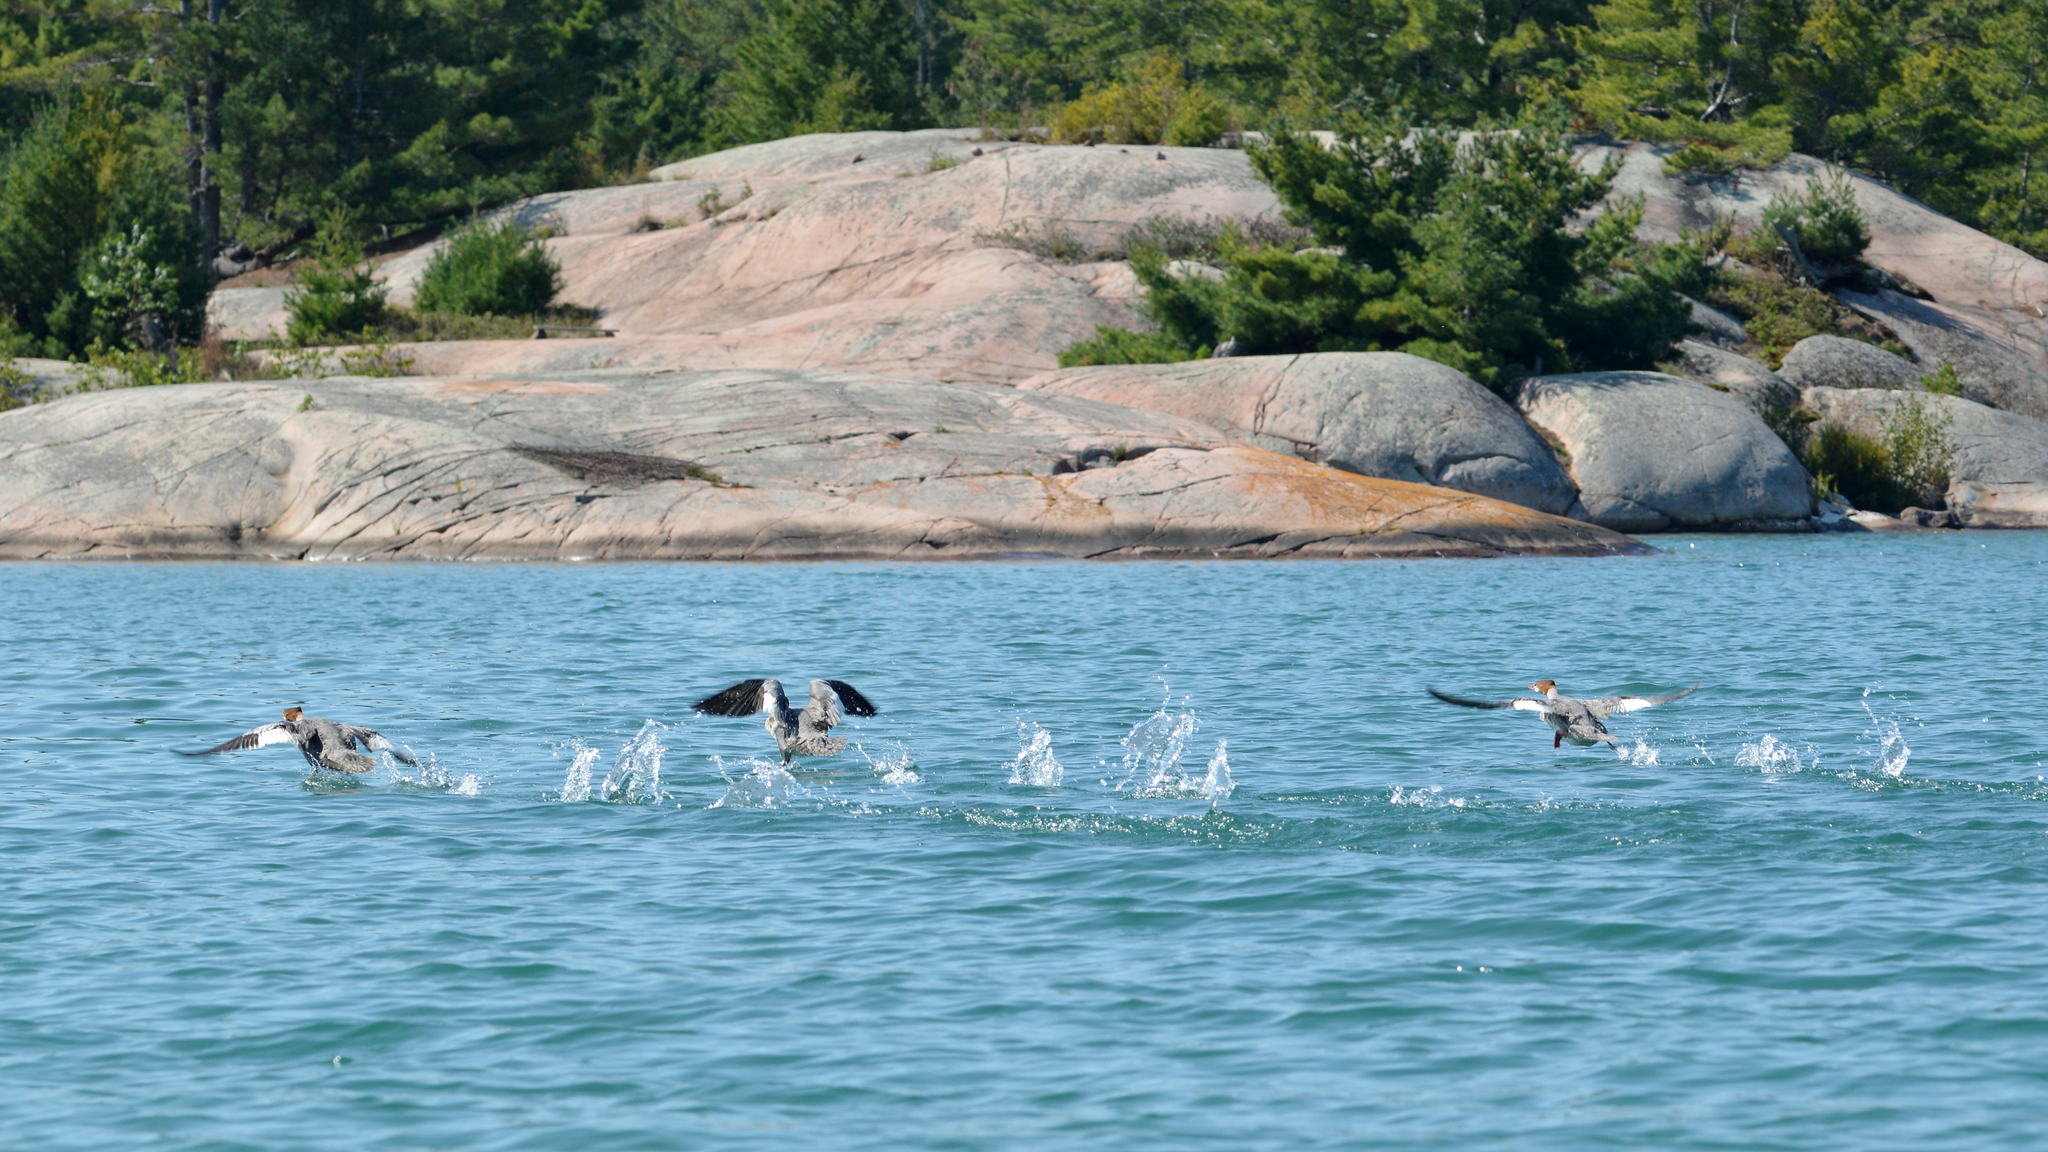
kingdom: Animalia
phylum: Chordata
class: Aves
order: Anseriformes
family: Anatidae
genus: Mergus
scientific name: Mergus merganser
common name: Common merganser
